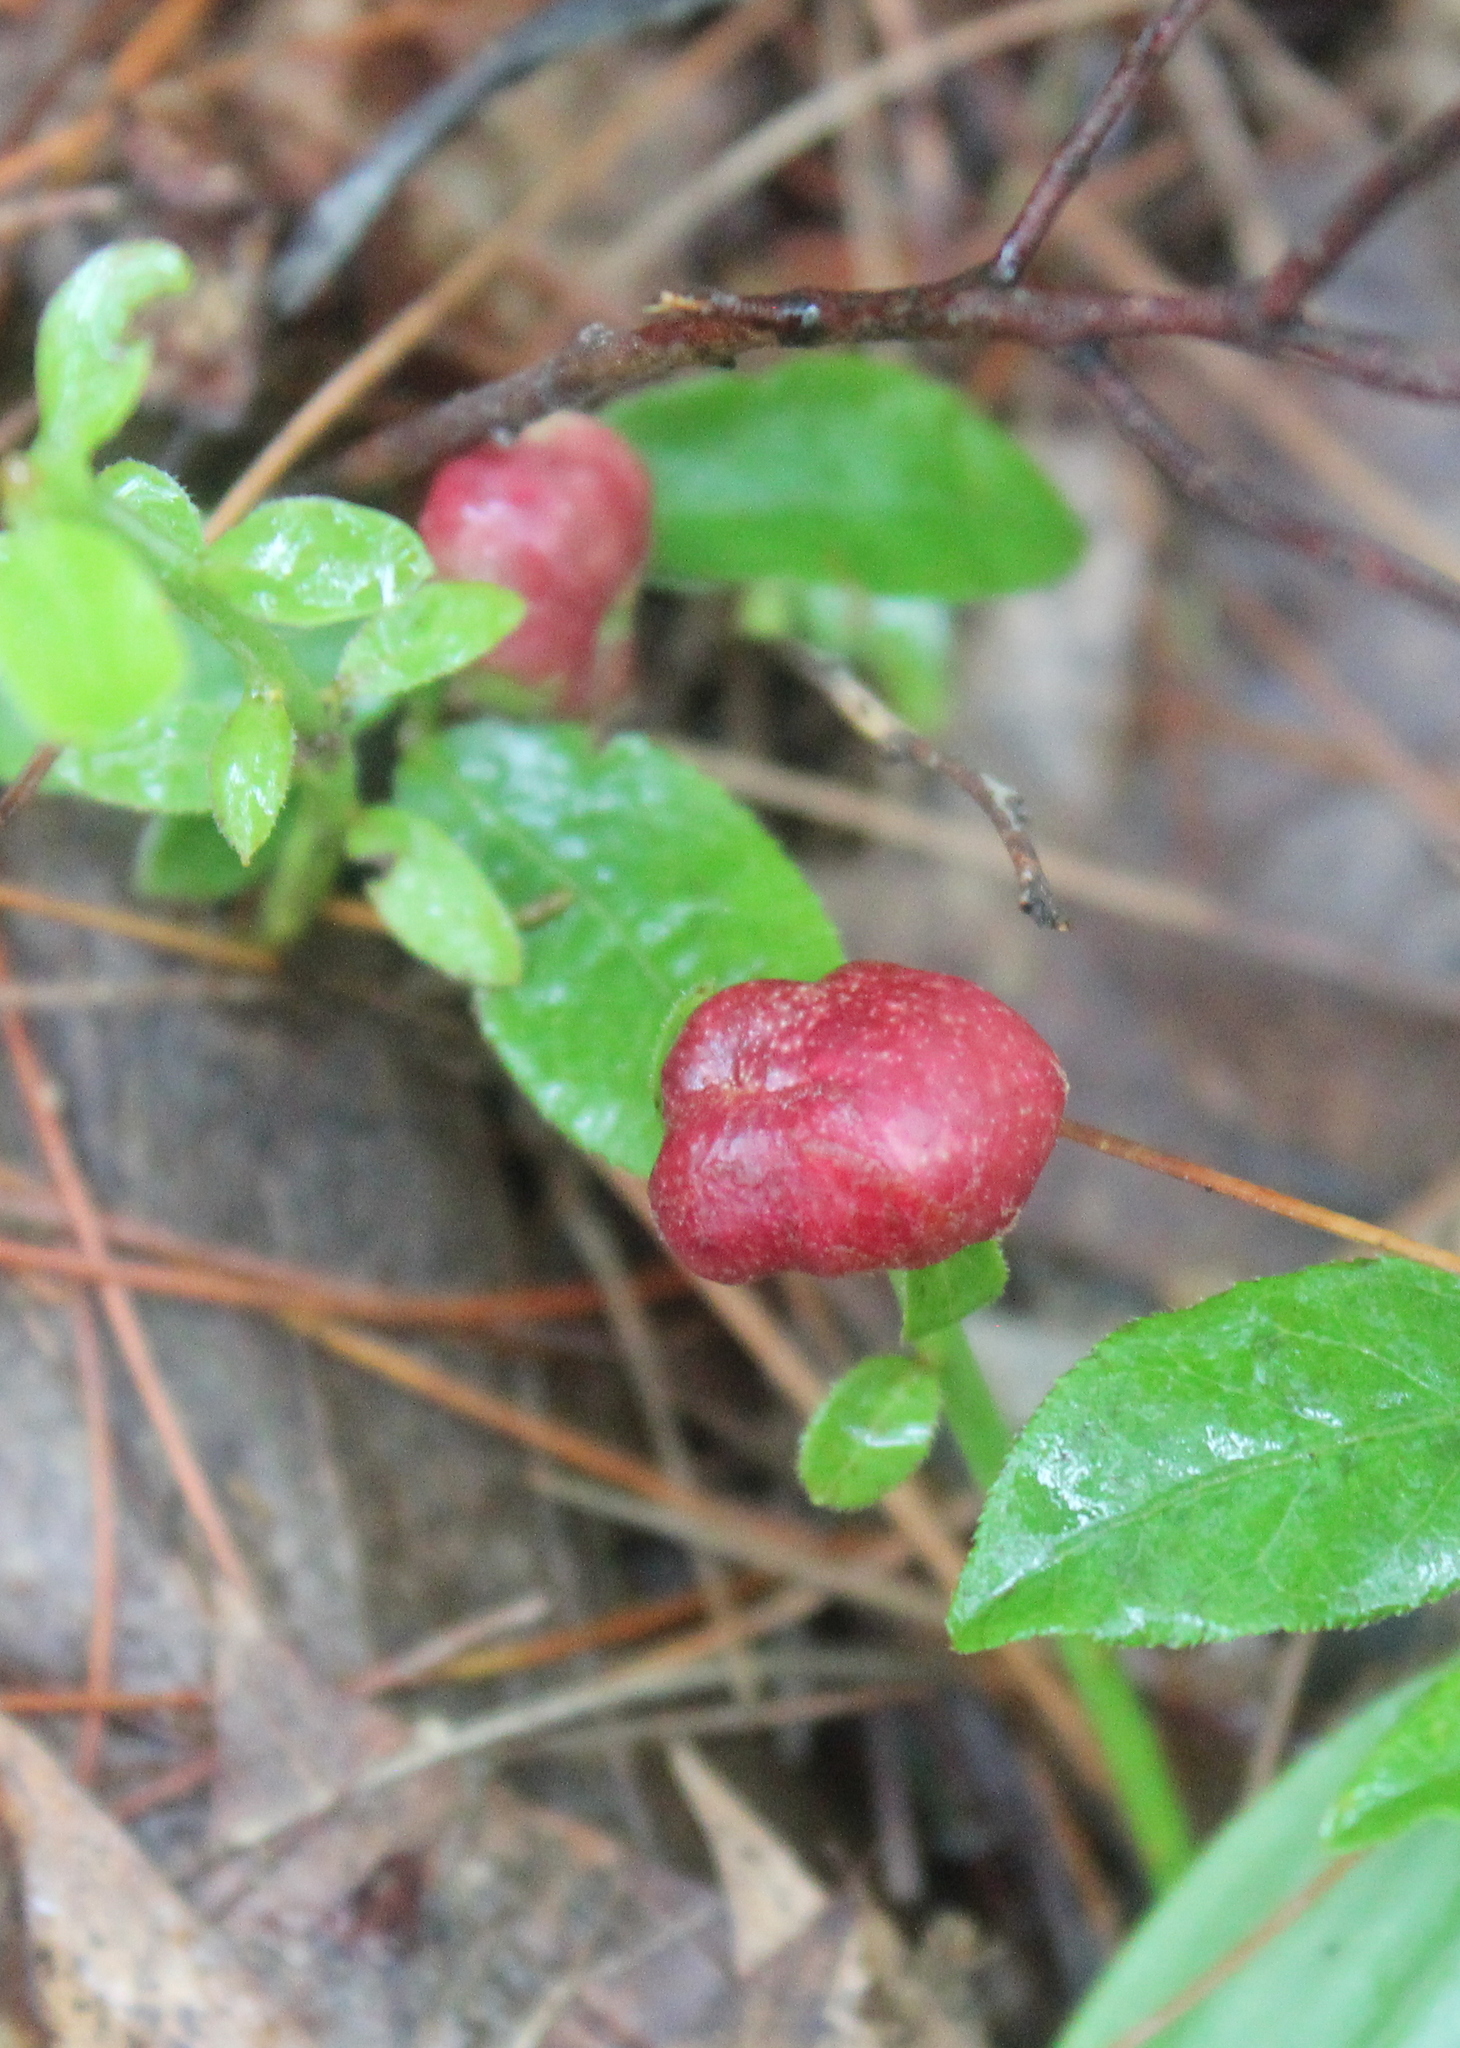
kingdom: Animalia
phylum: Arthropoda
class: Insecta
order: Hymenoptera
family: Pteromalidae
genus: Hemadas
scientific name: Hemadas nubilipennis
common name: Blueberry stem gall wasp
